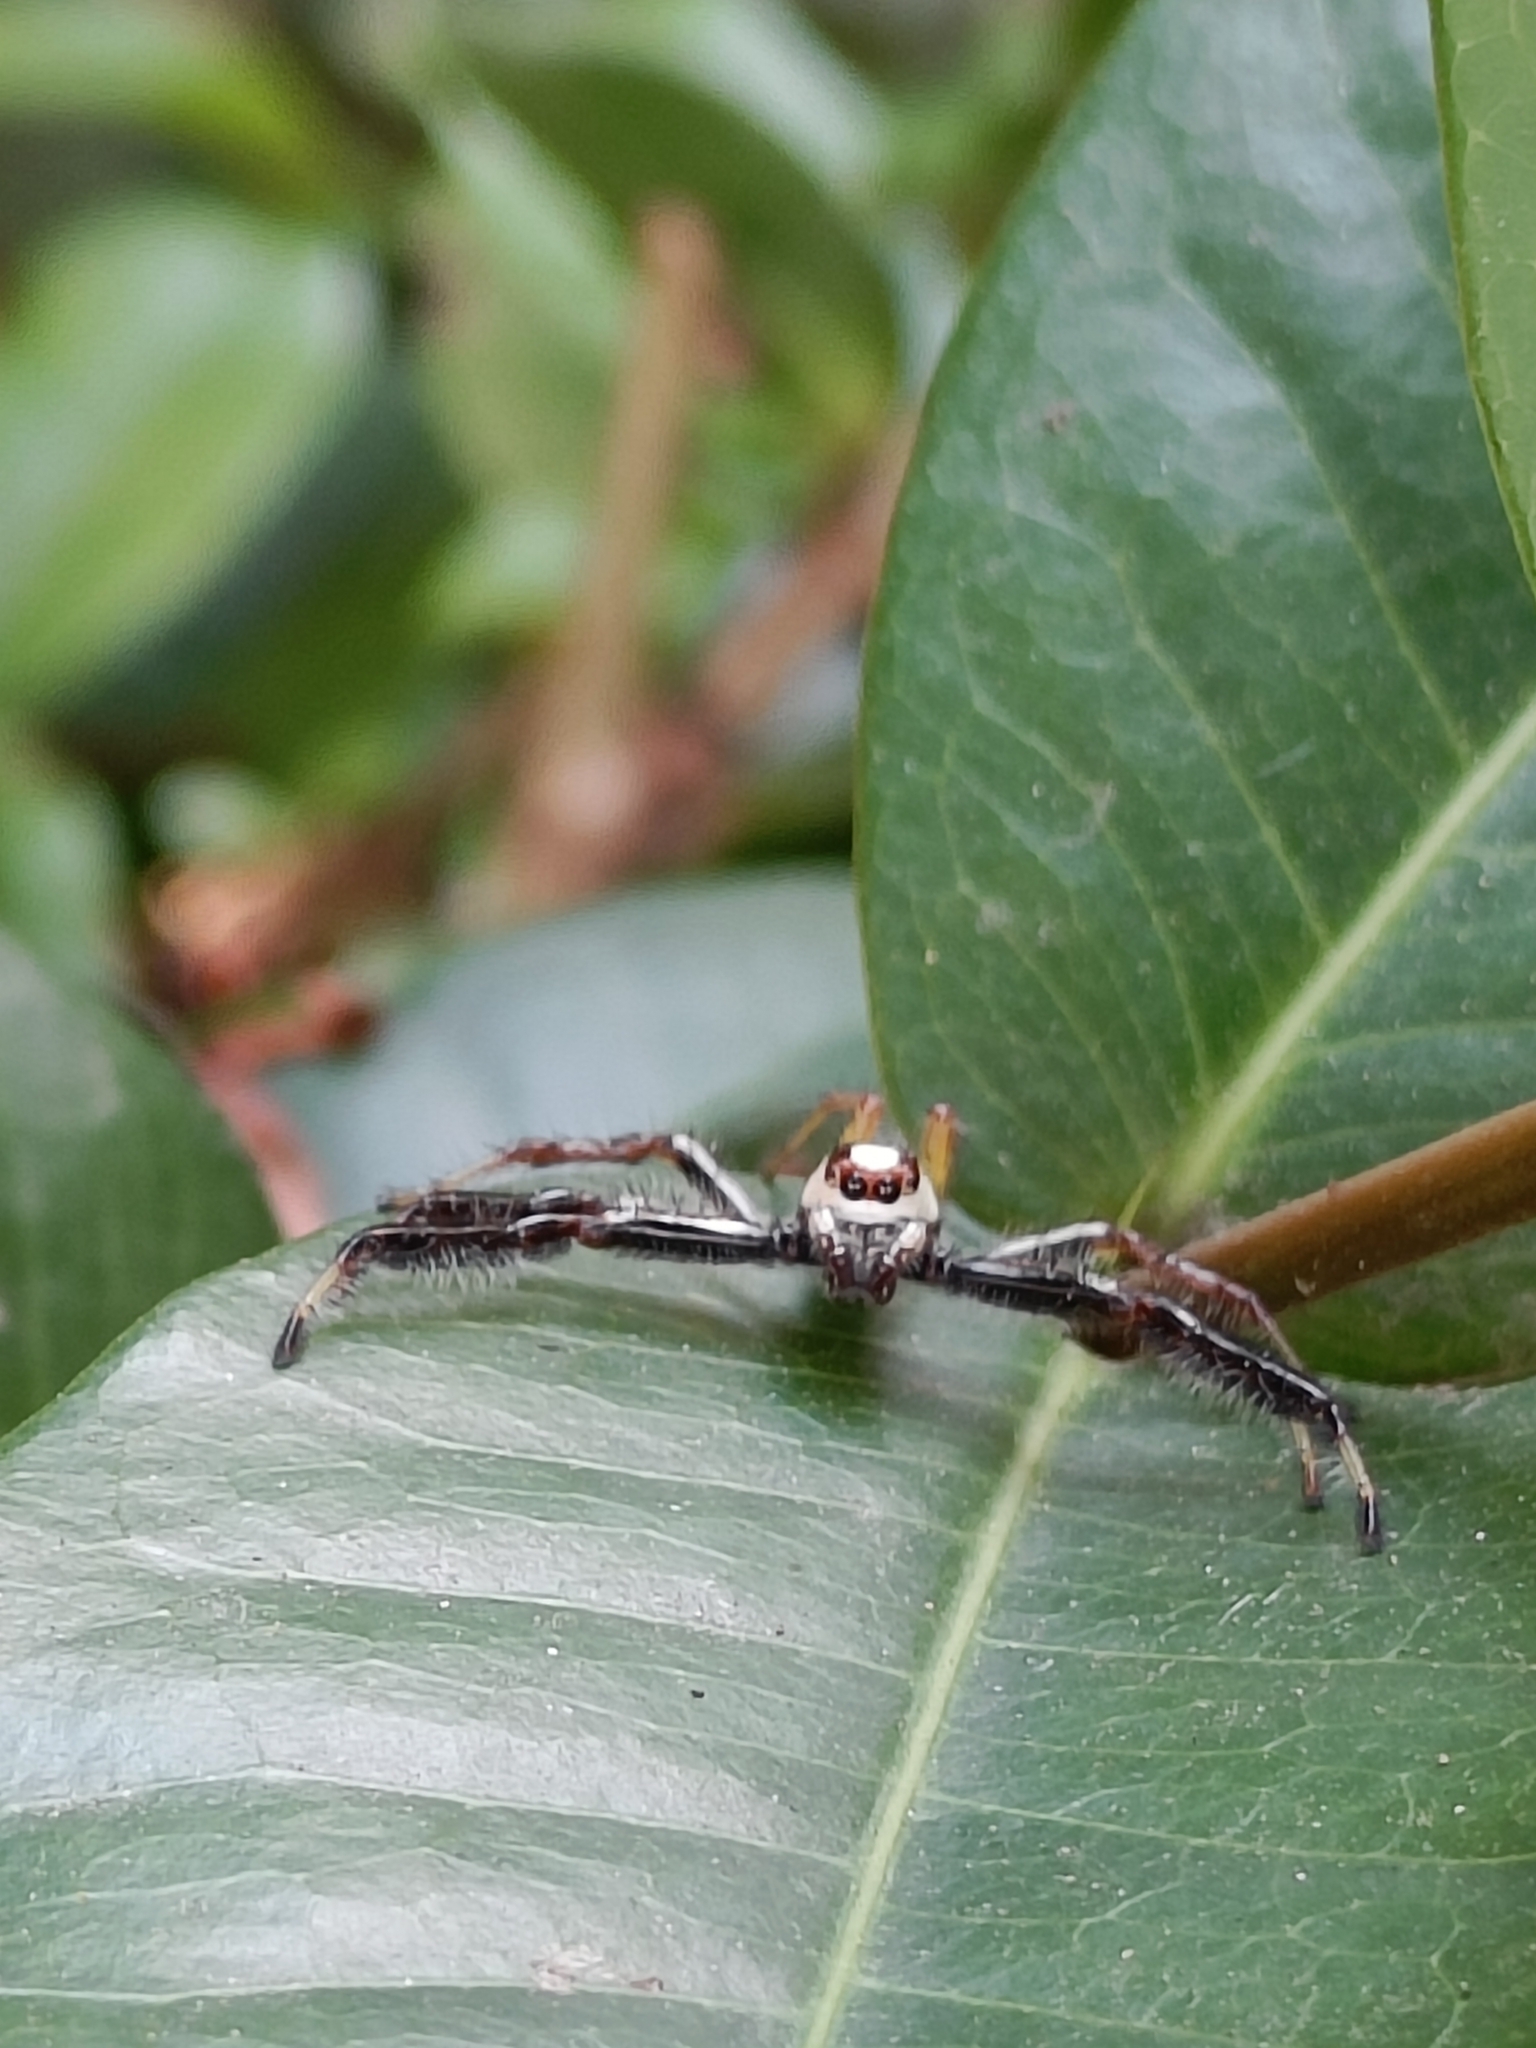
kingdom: Animalia
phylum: Arthropoda
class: Arachnida
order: Araneae
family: Salticidae
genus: Telamonia
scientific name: Telamonia dimidiata
